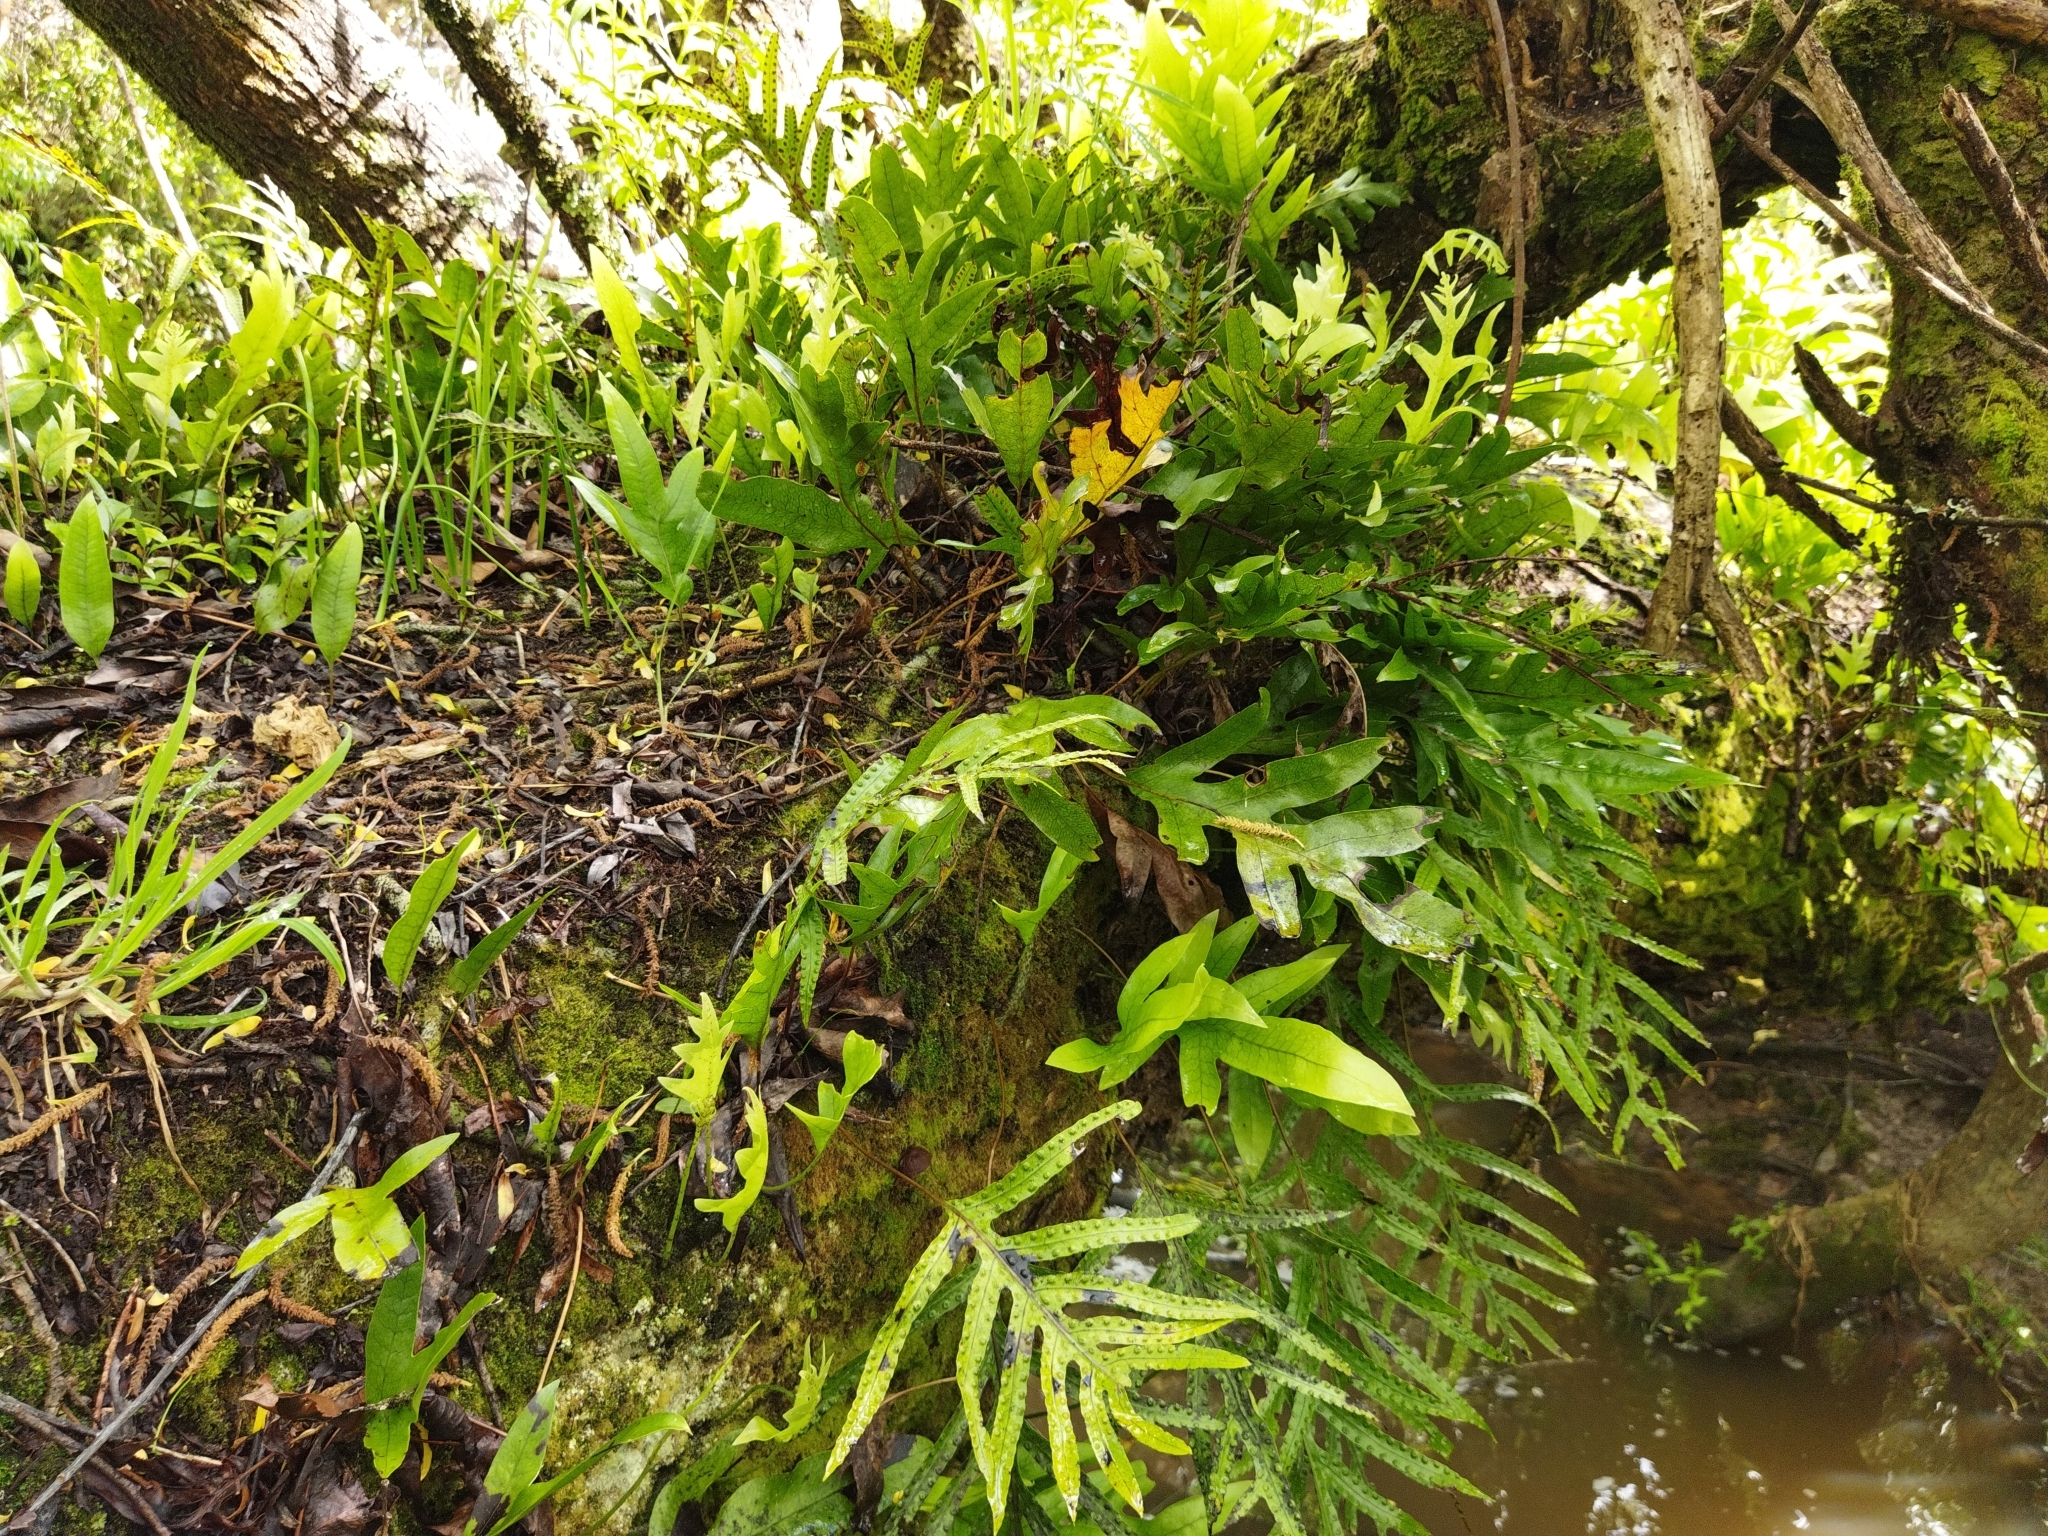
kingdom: Plantae
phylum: Tracheophyta
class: Polypodiopsida
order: Polypodiales
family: Polypodiaceae
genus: Lecanopteris
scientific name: Lecanopteris pustulata
